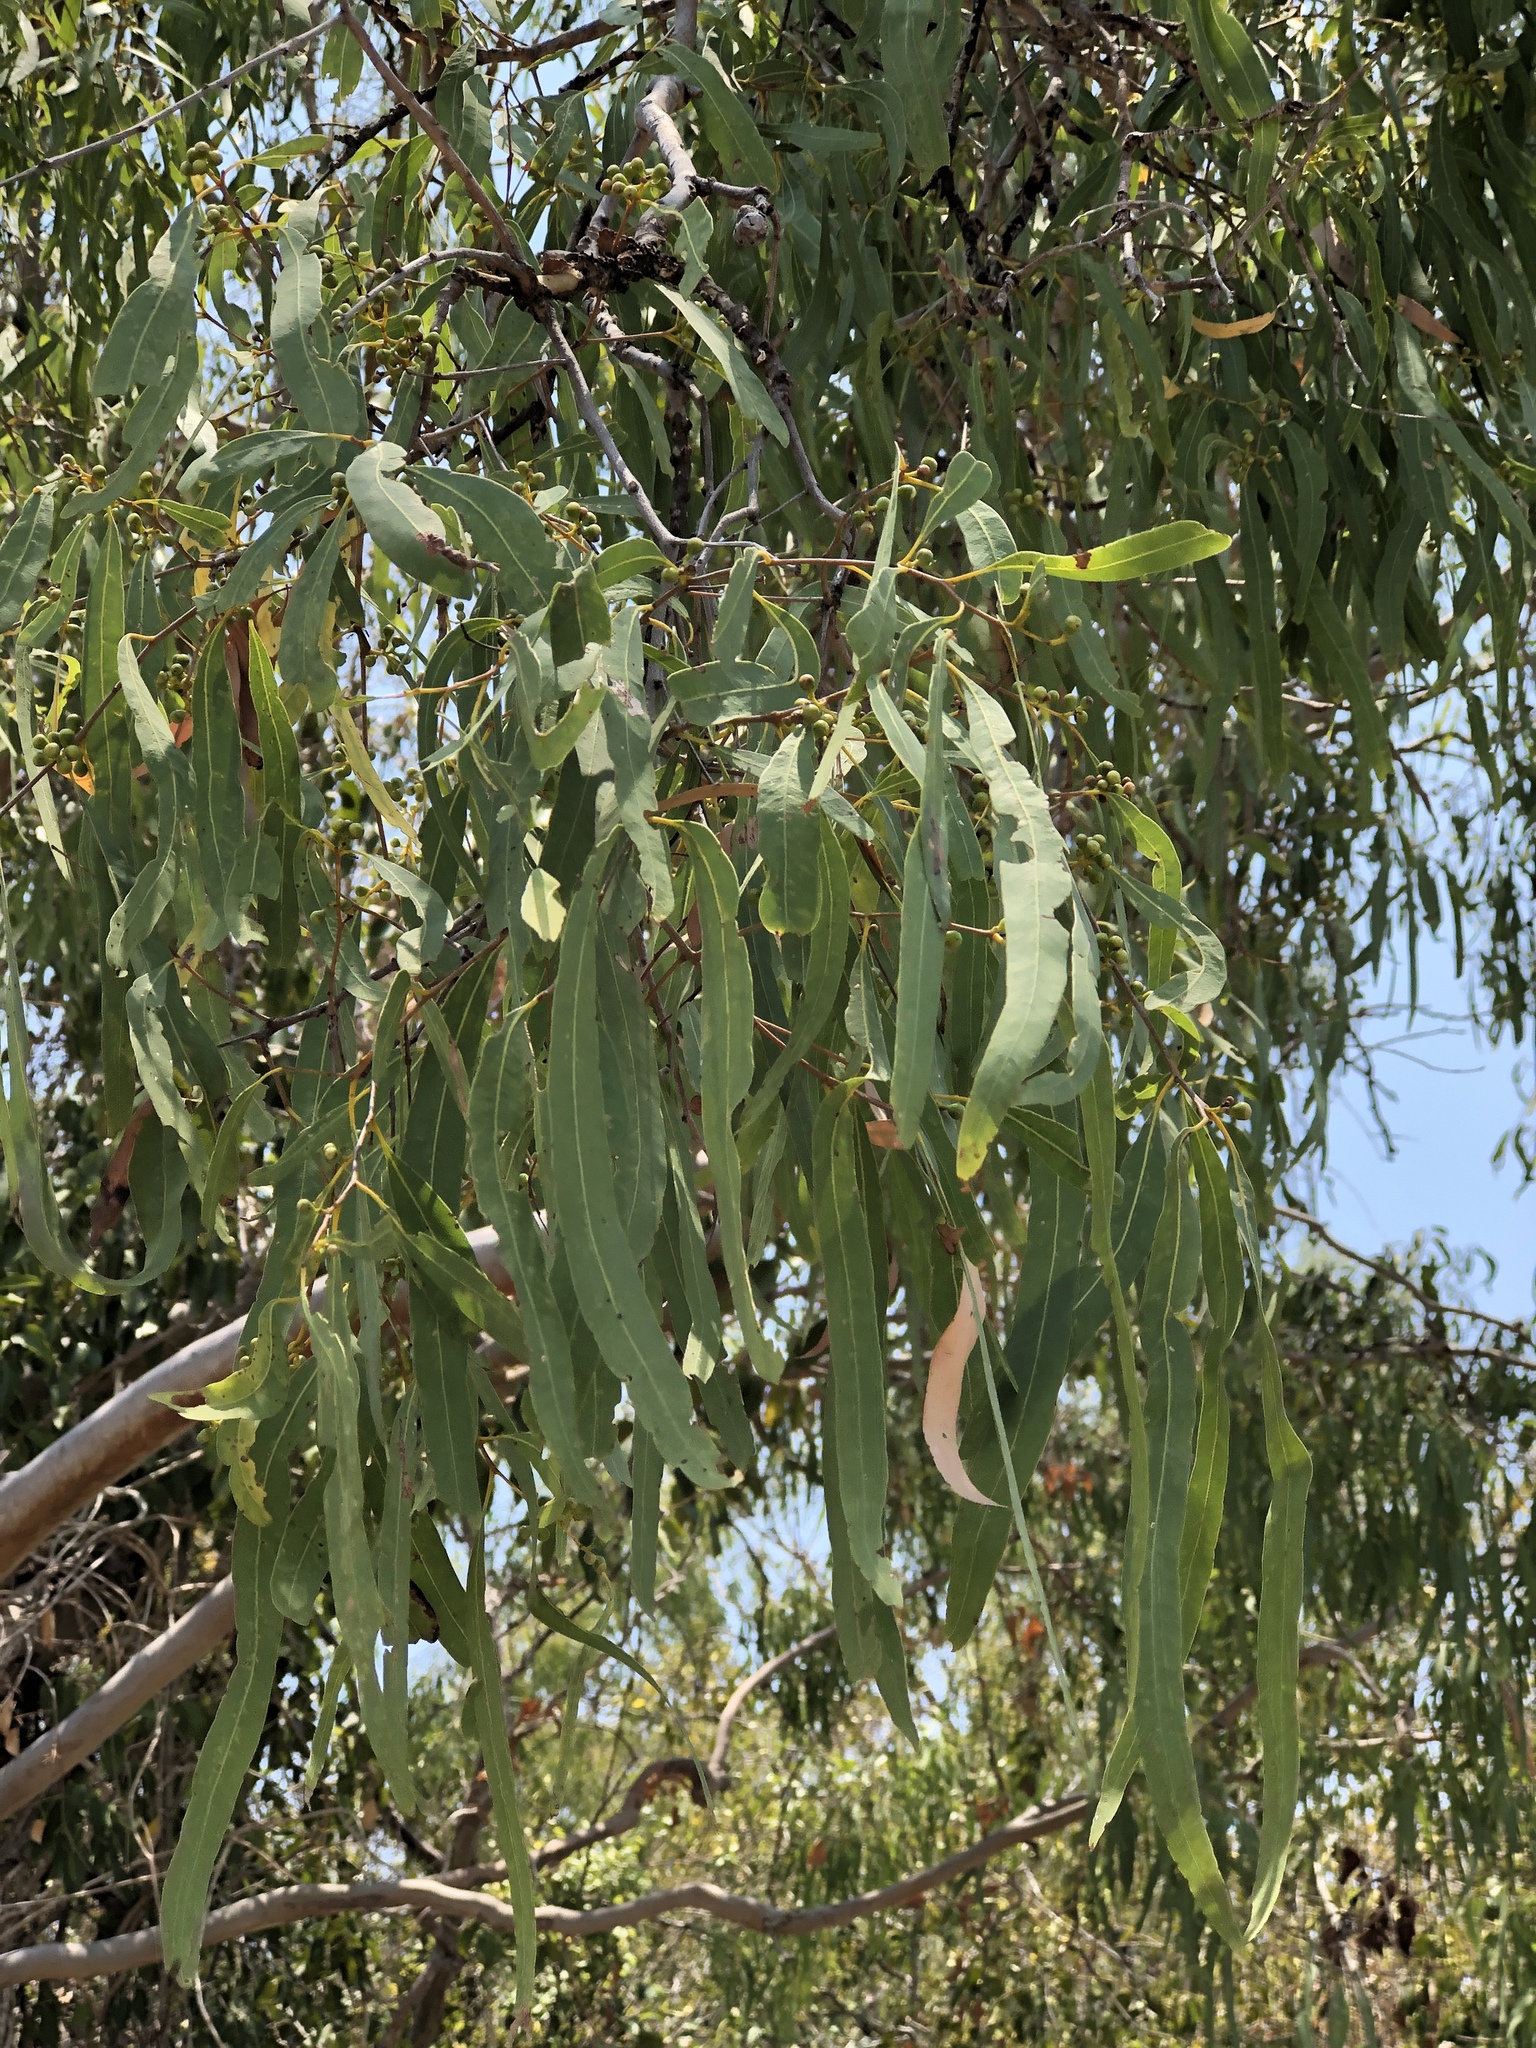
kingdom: Plantae
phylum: Tracheophyta
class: Magnoliopsida
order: Myrtales
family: Myrtaceae
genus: Corymbia
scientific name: Corymbia tessellaris
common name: Carbeen
